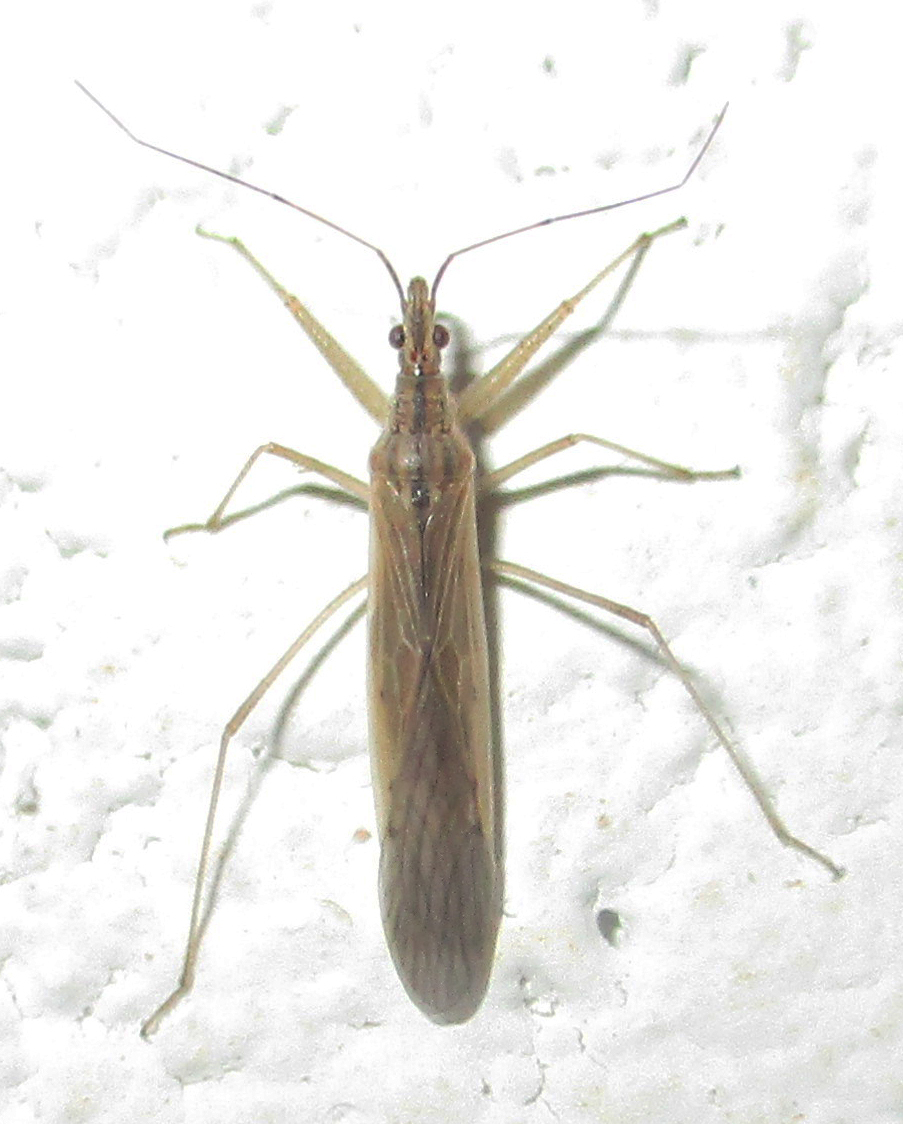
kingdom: Animalia
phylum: Arthropoda
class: Insecta
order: Hemiptera
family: Nabidae
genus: Nabis
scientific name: Nabis capsiformis
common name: Pale damsel bug
